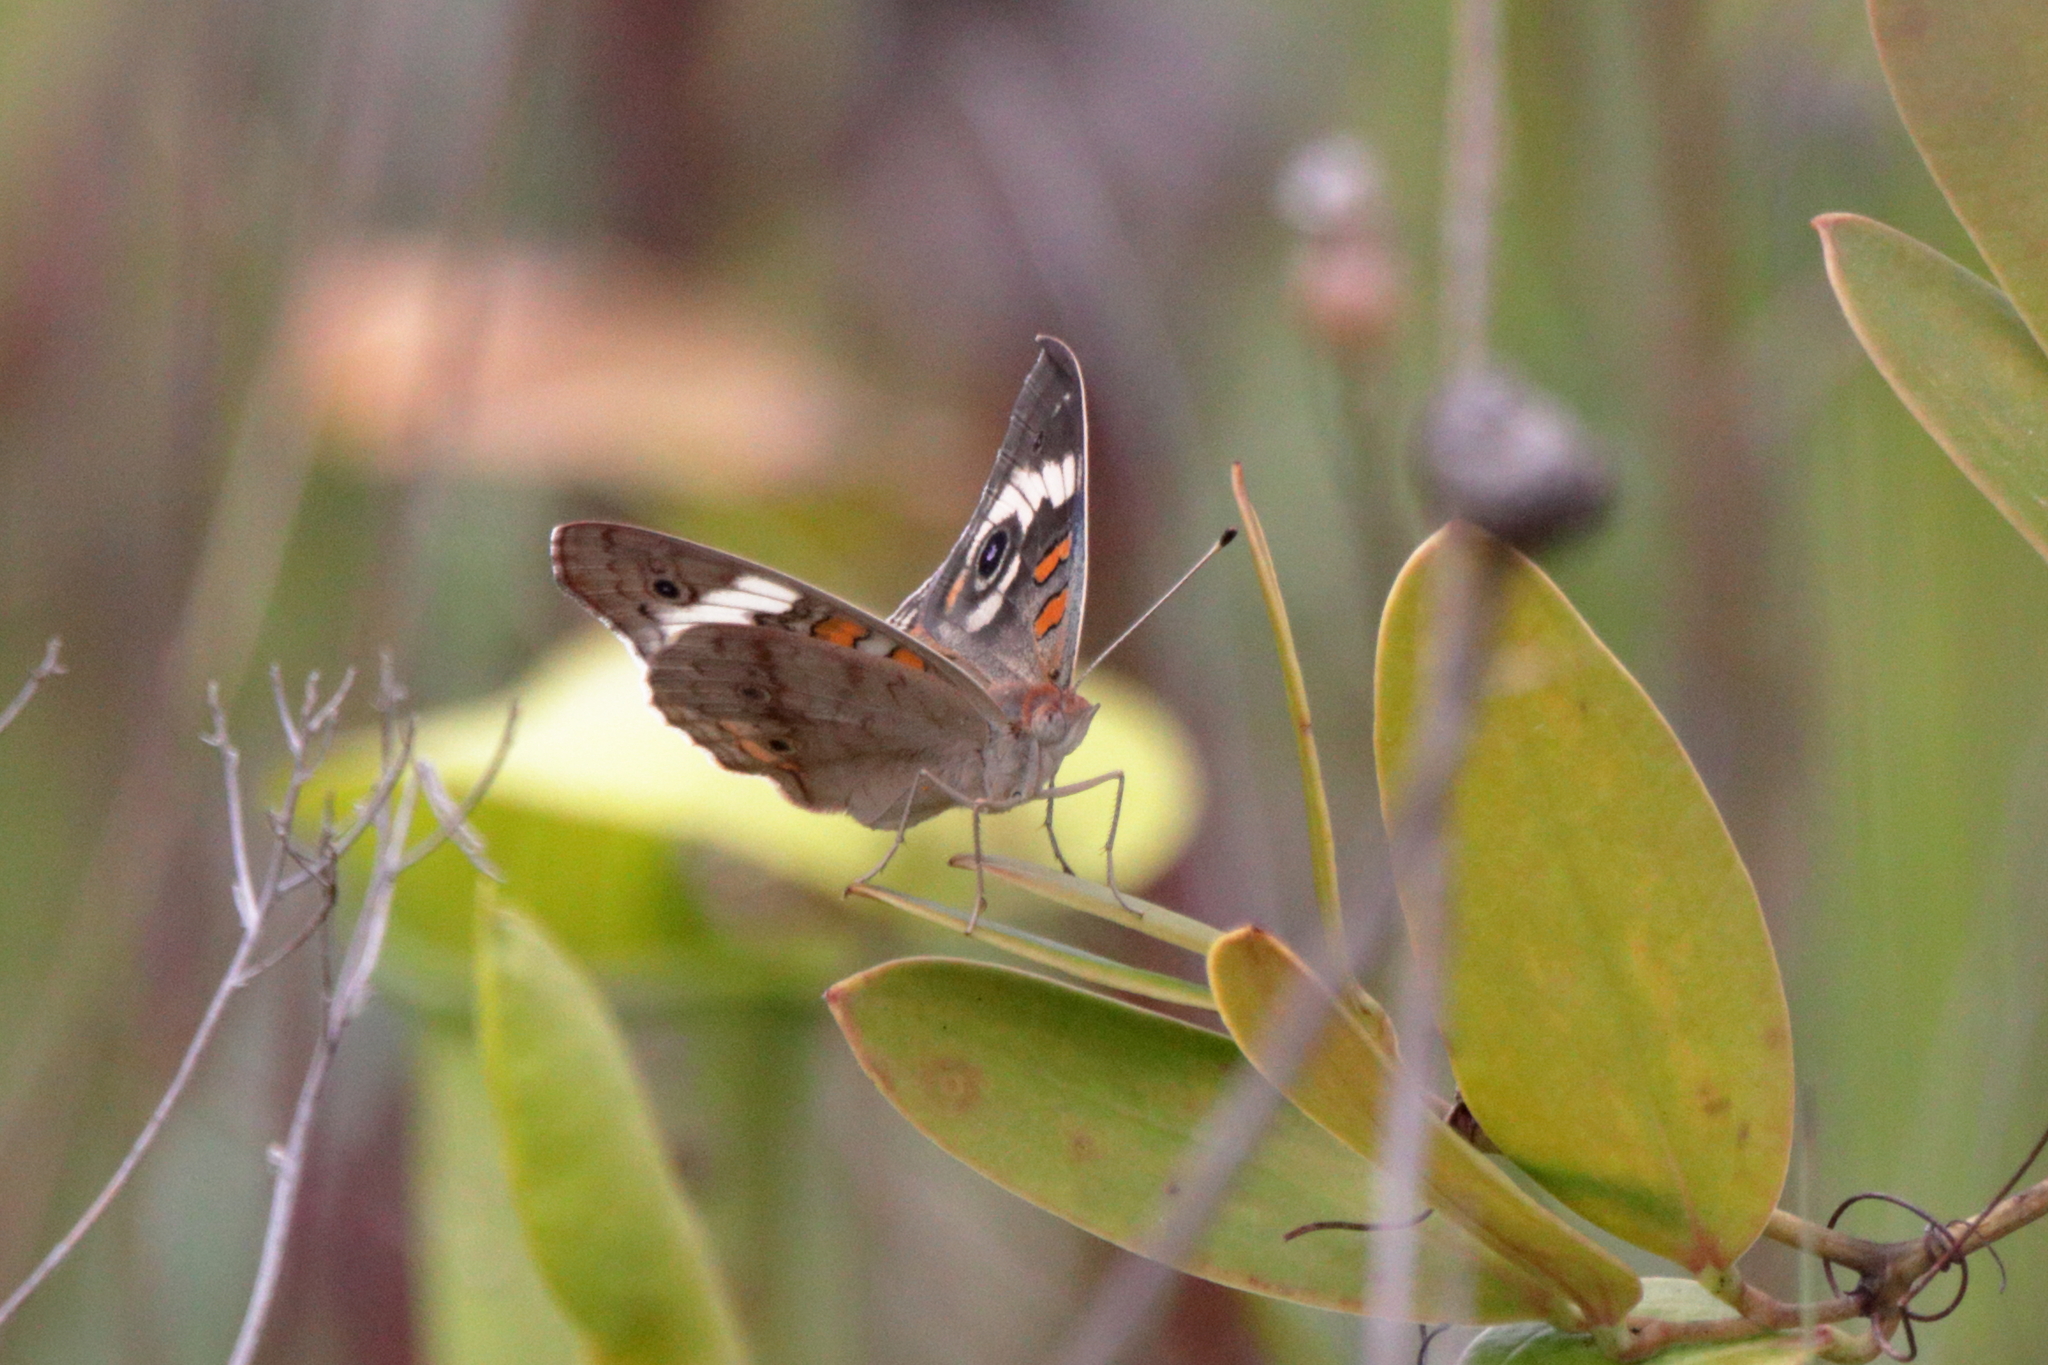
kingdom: Animalia
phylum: Arthropoda
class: Insecta
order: Lepidoptera
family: Nymphalidae
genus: Junonia
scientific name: Junonia coenia
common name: Common buckeye
